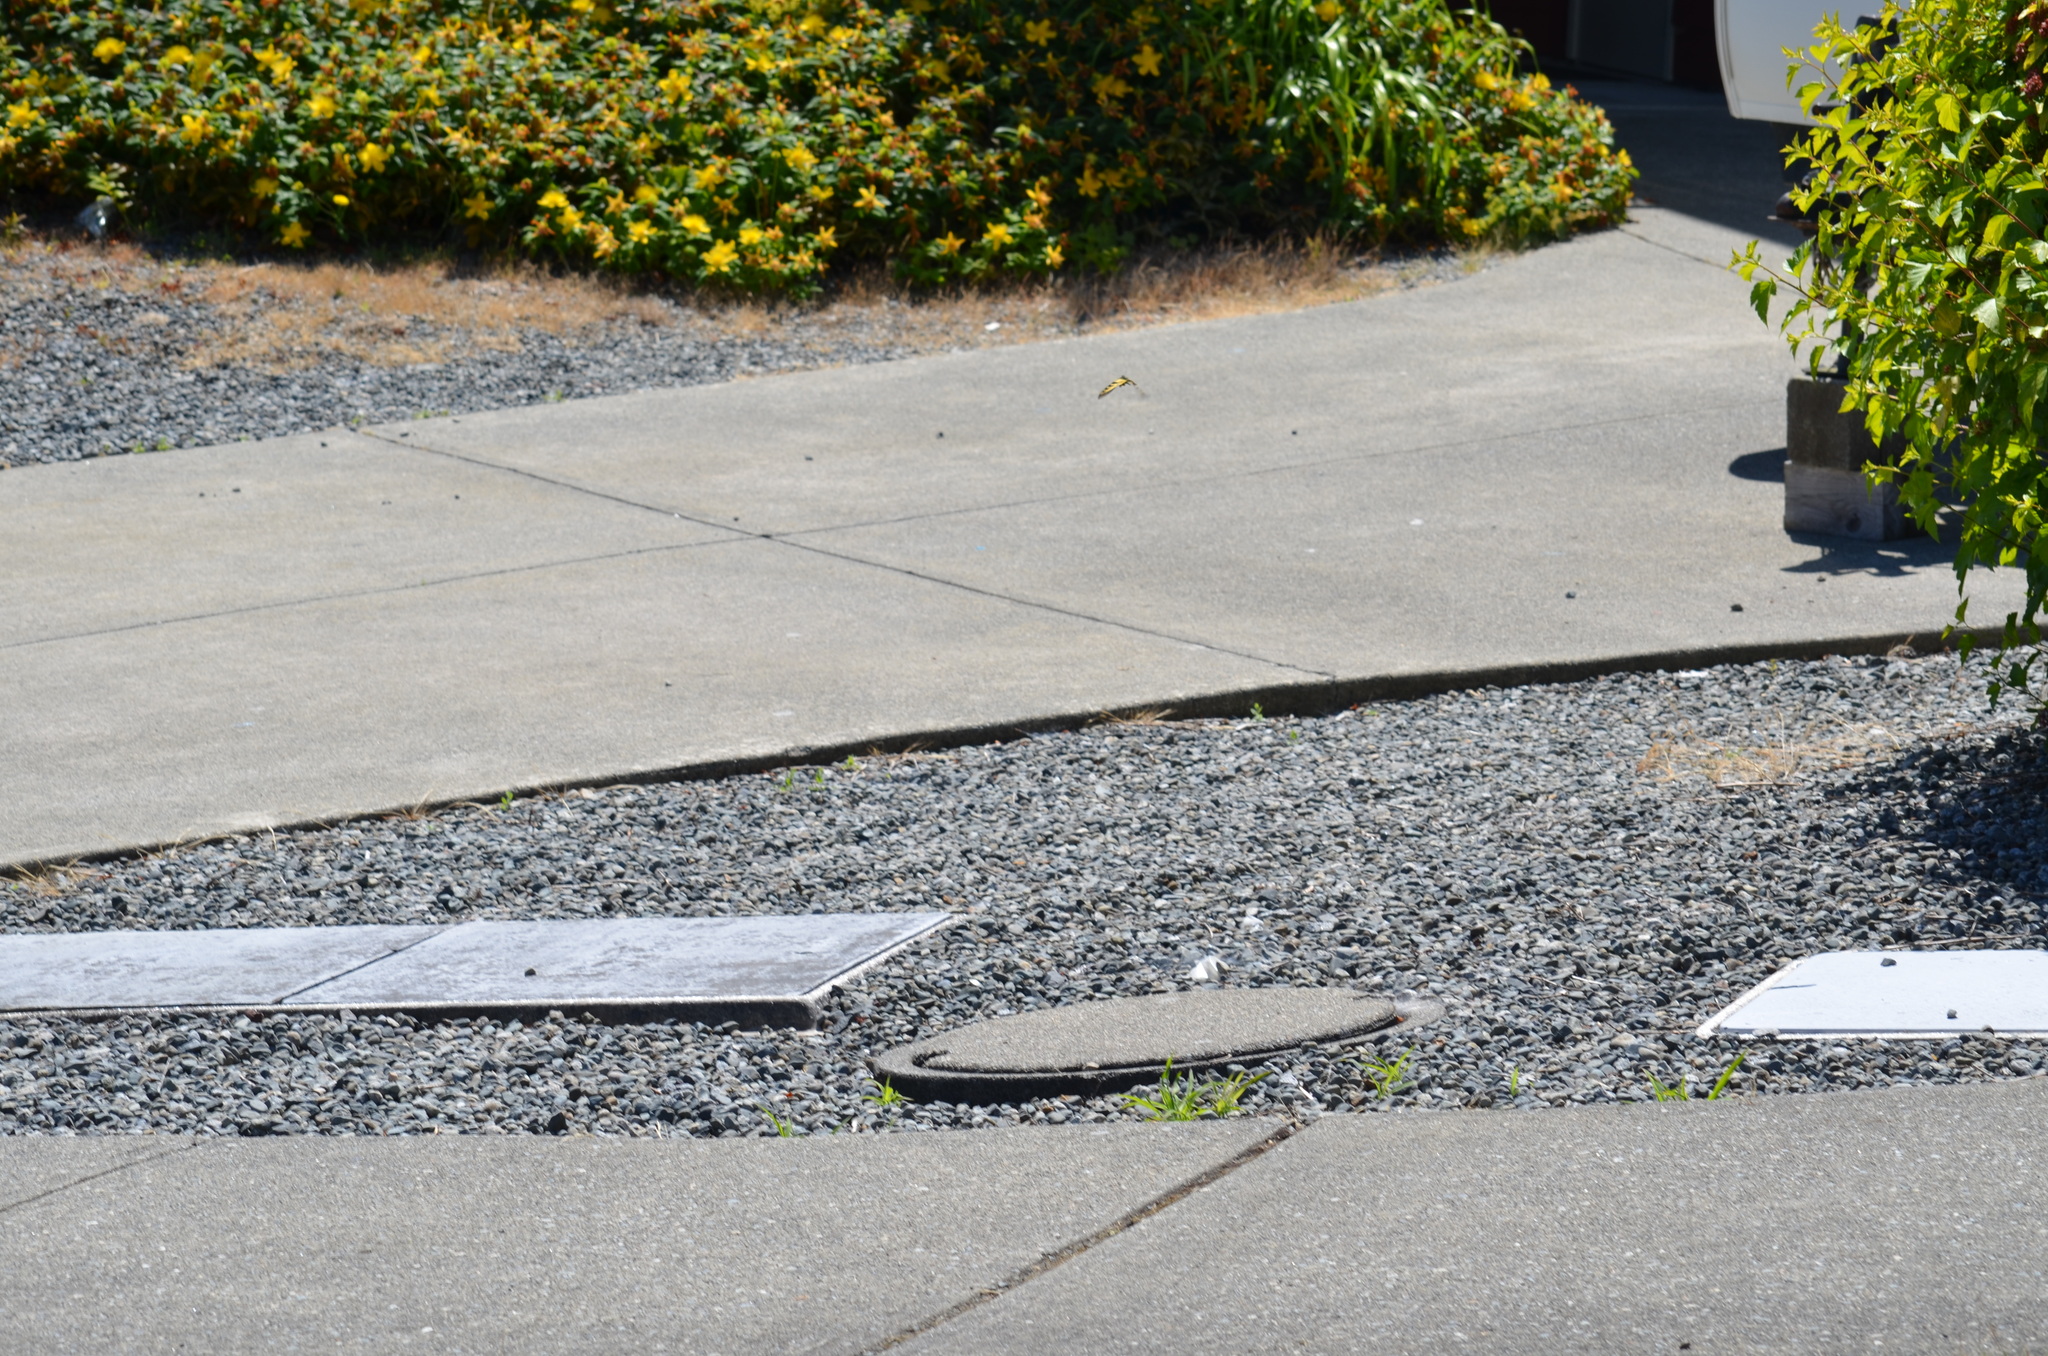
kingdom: Animalia
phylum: Arthropoda
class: Insecta
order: Lepidoptera
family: Papilionidae
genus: Papilio
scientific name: Papilio rutulus
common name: Western tiger swallowtail
